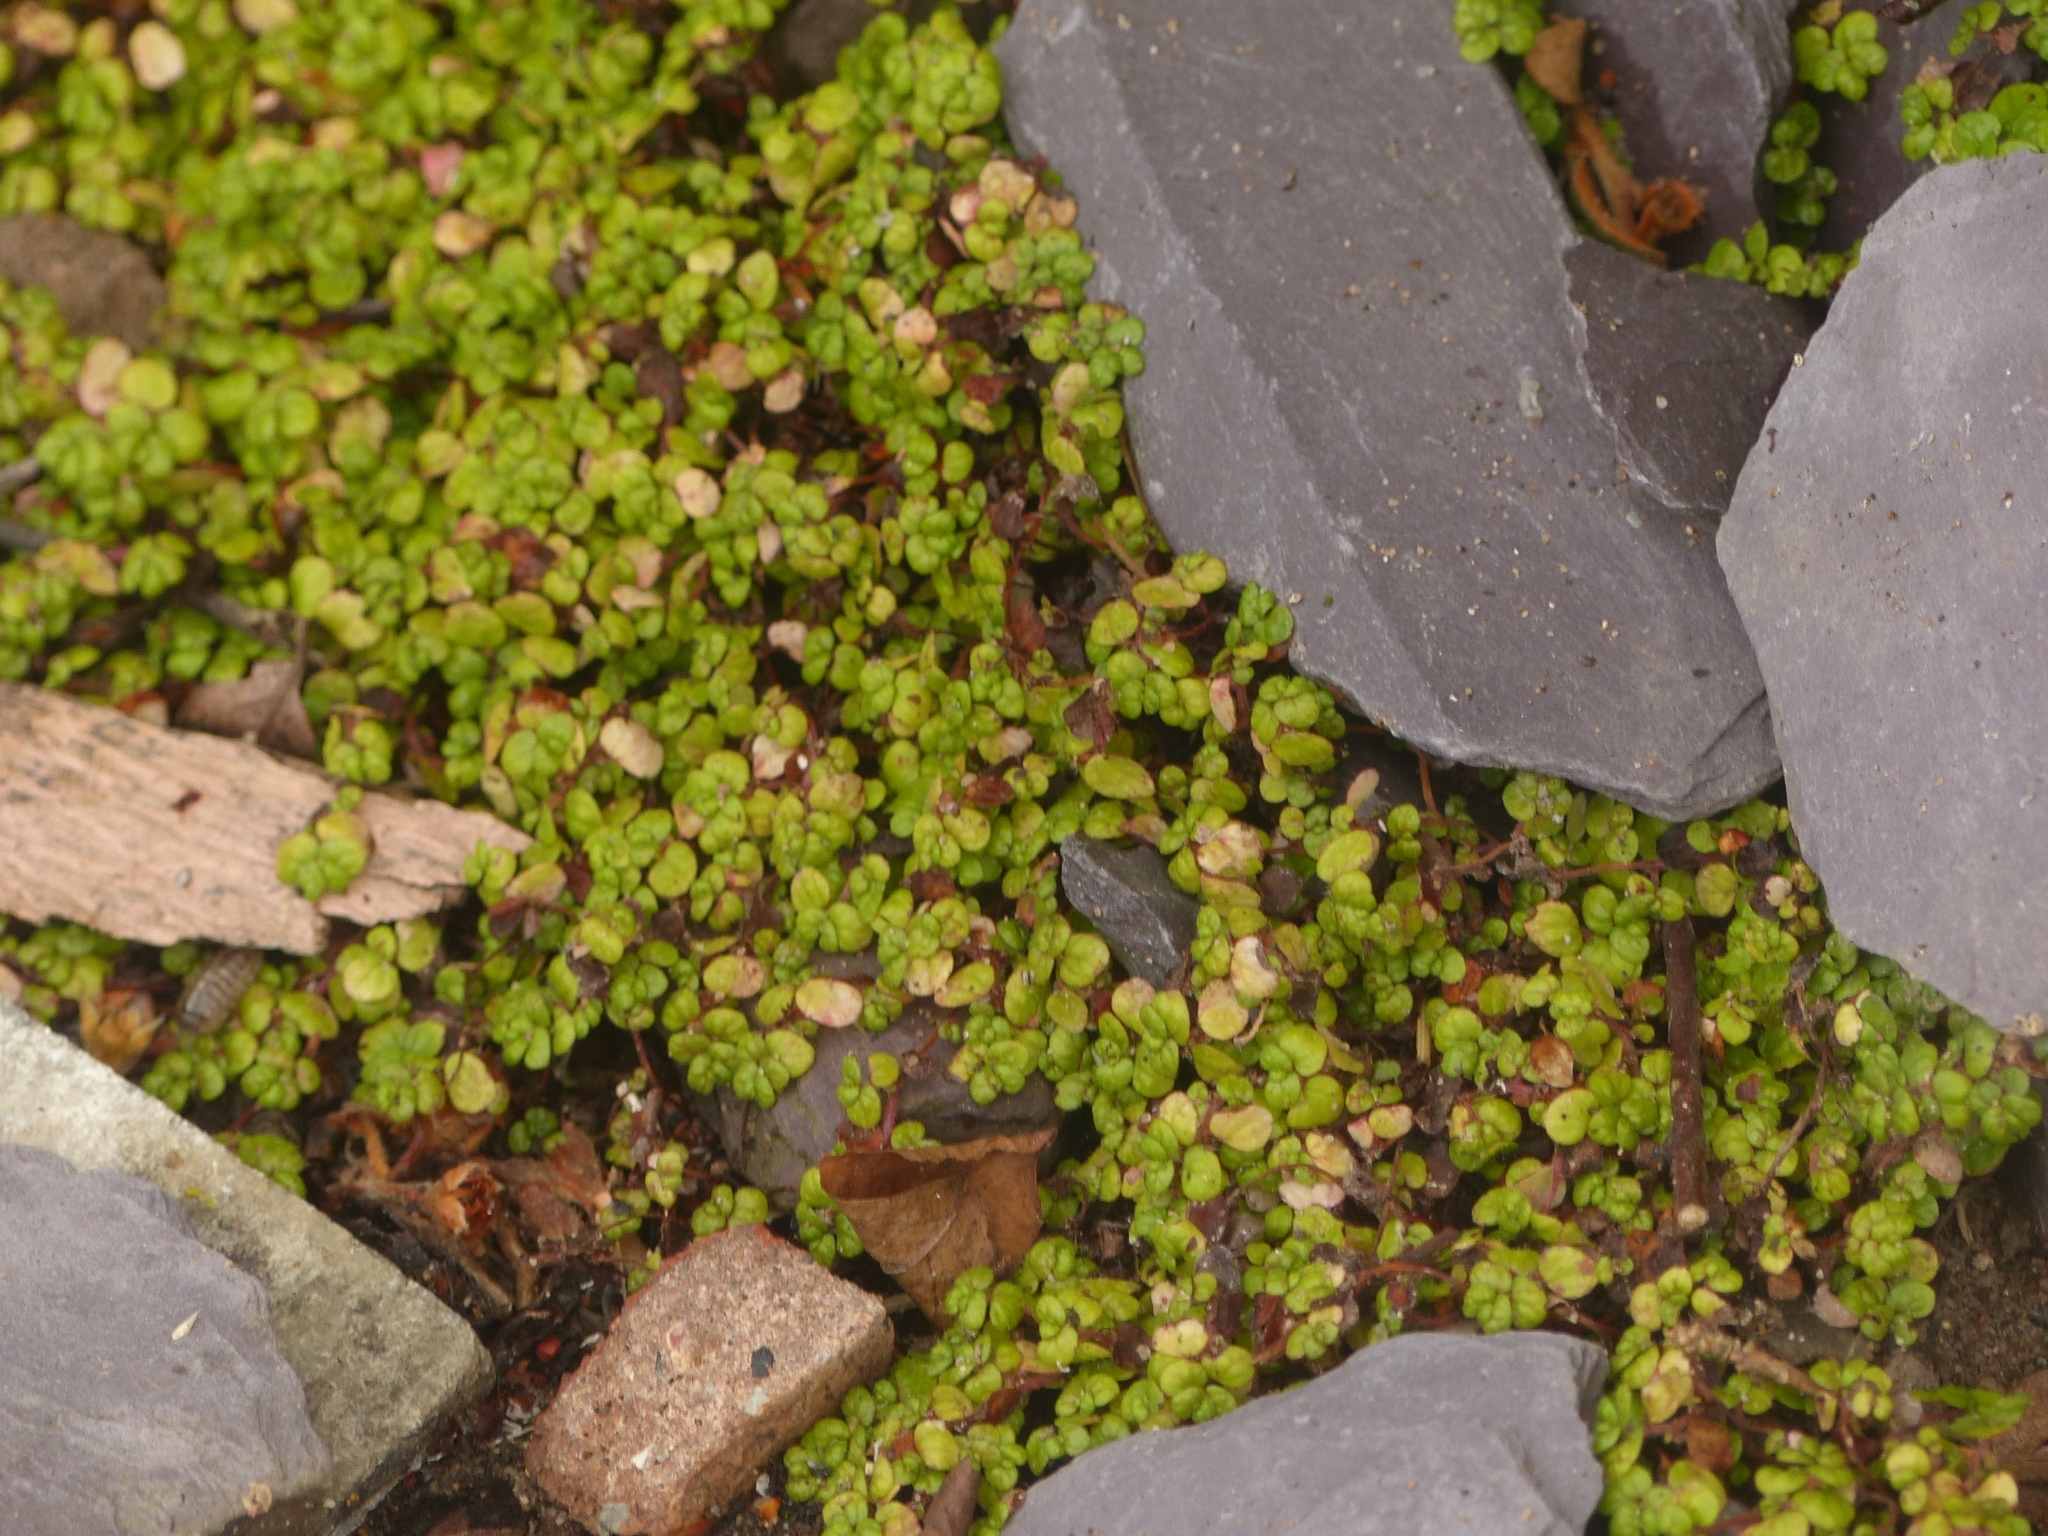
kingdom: Plantae
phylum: Tracheophyta
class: Magnoliopsida
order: Rosales
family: Urticaceae
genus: Soleirolia
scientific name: Soleirolia soleirolii
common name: Mind-your-own-business
